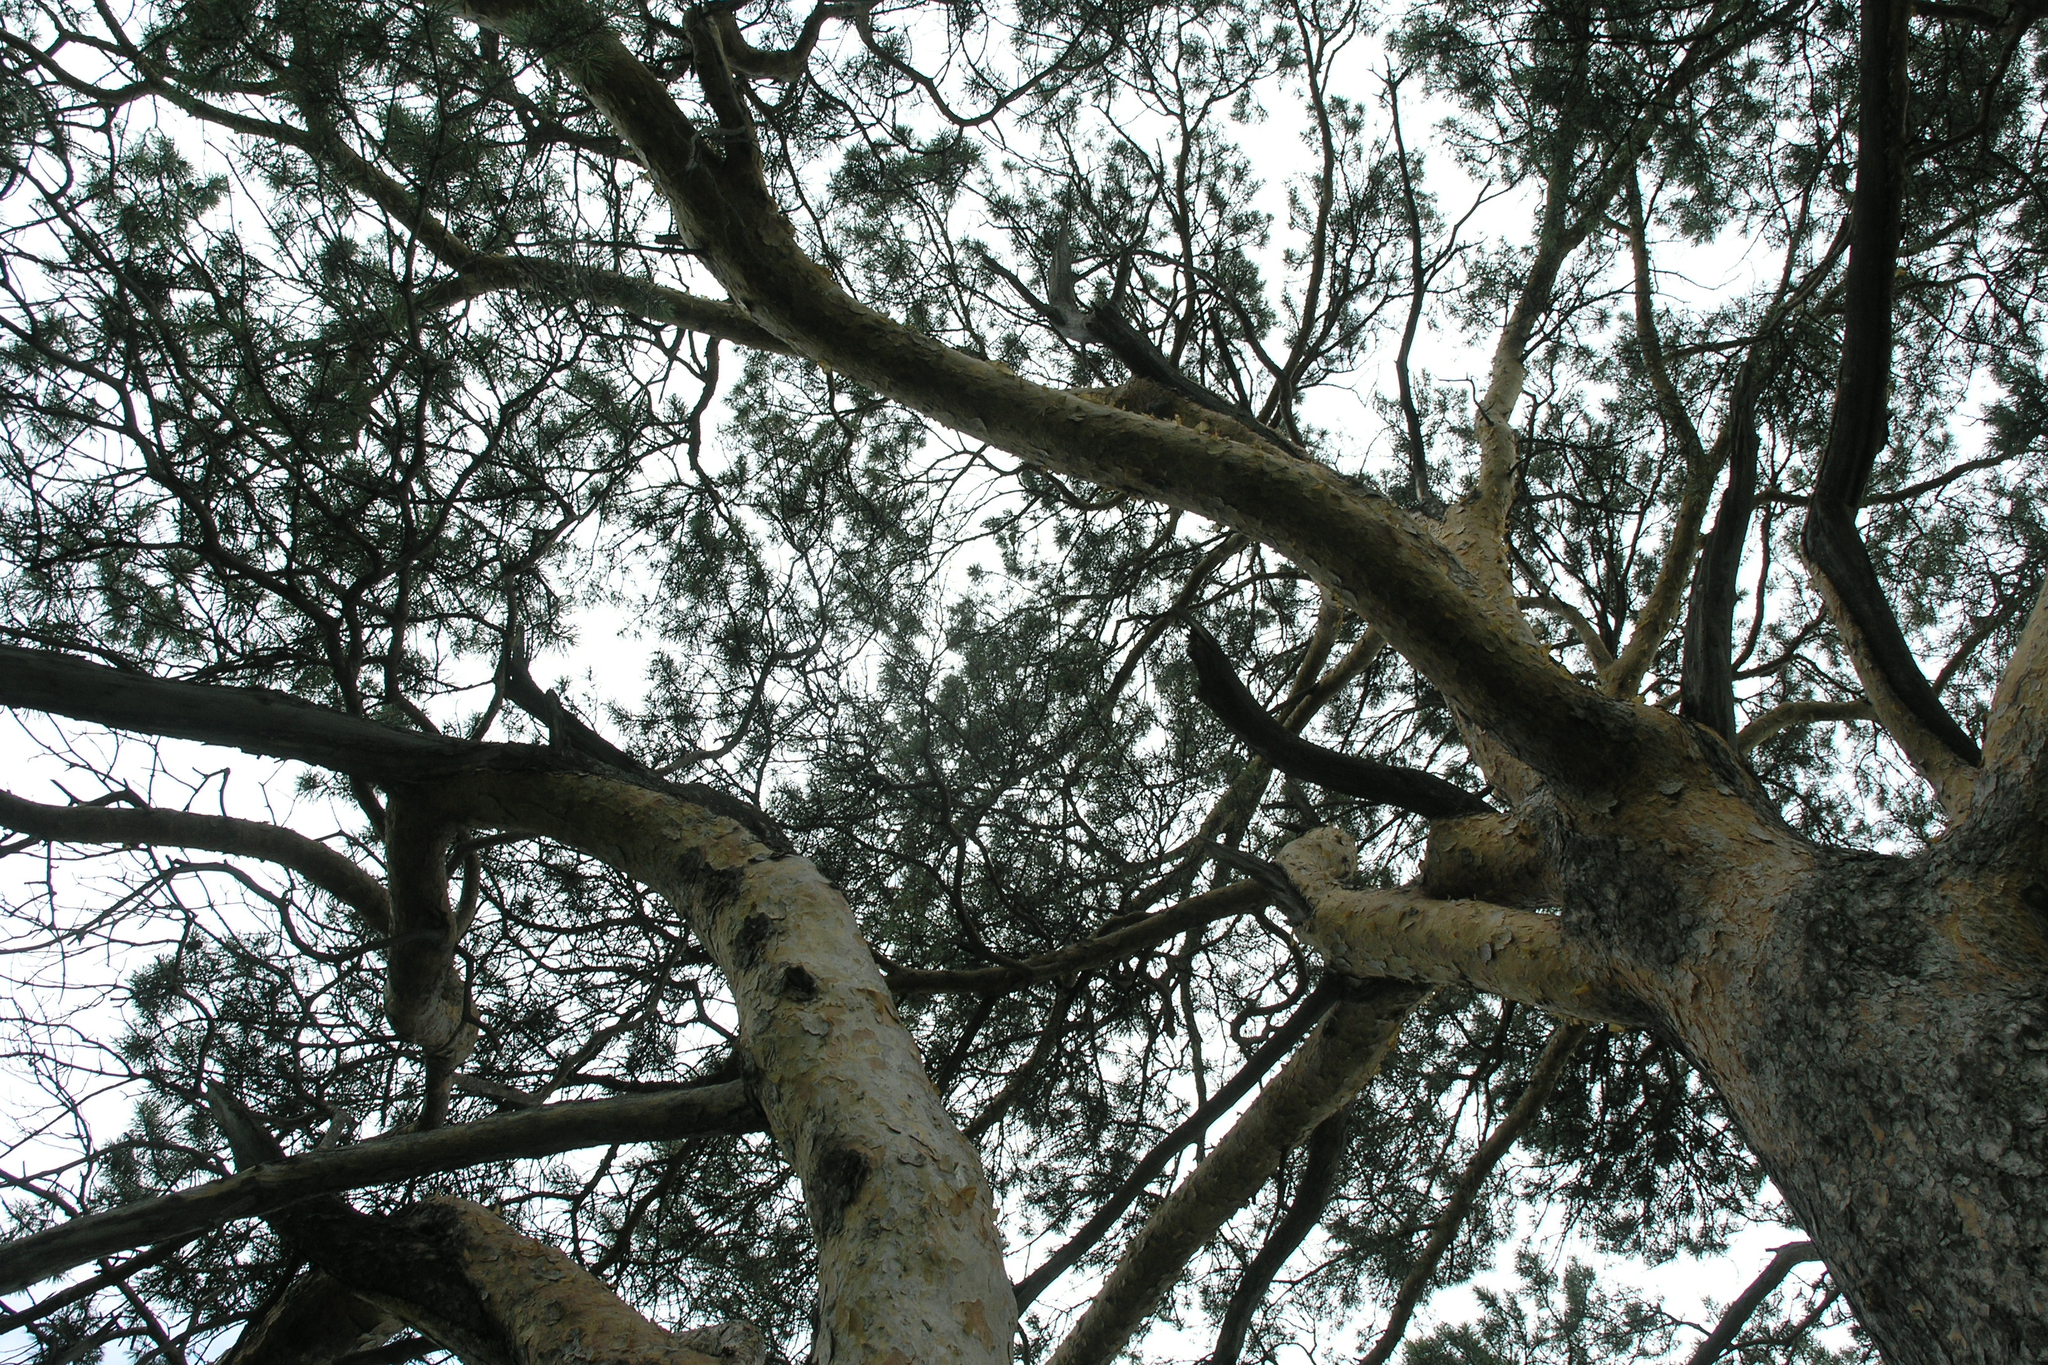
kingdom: Plantae
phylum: Tracheophyta
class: Pinopsida
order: Pinales
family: Pinaceae
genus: Pinus
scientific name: Pinus sylvestris
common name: Scots pine
